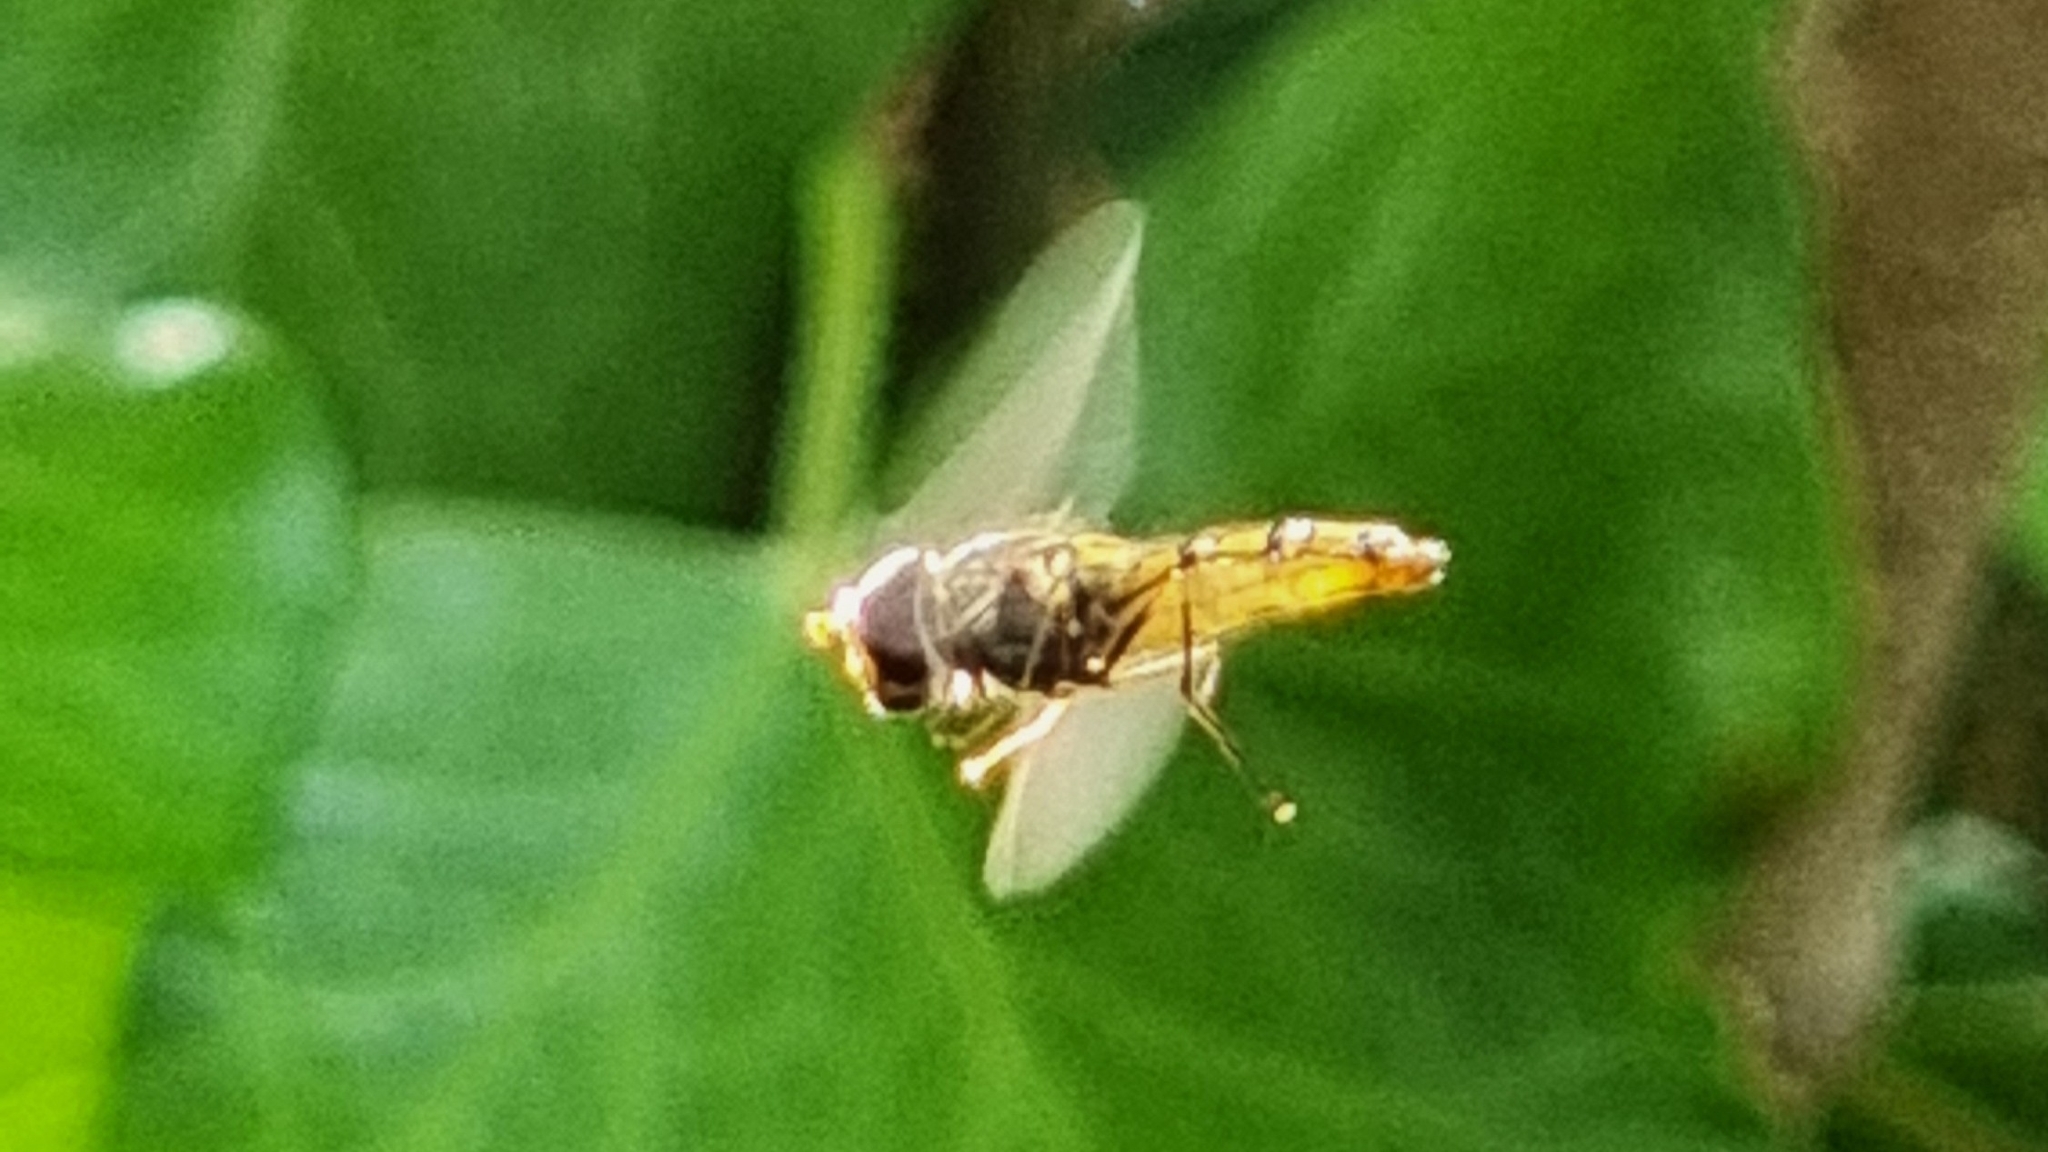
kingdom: Animalia
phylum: Arthropoda
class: Insecta
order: Diptera
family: Syrphidae
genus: Episyrphus
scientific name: Episyrphus balteatus
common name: Marmalade hoverfly
